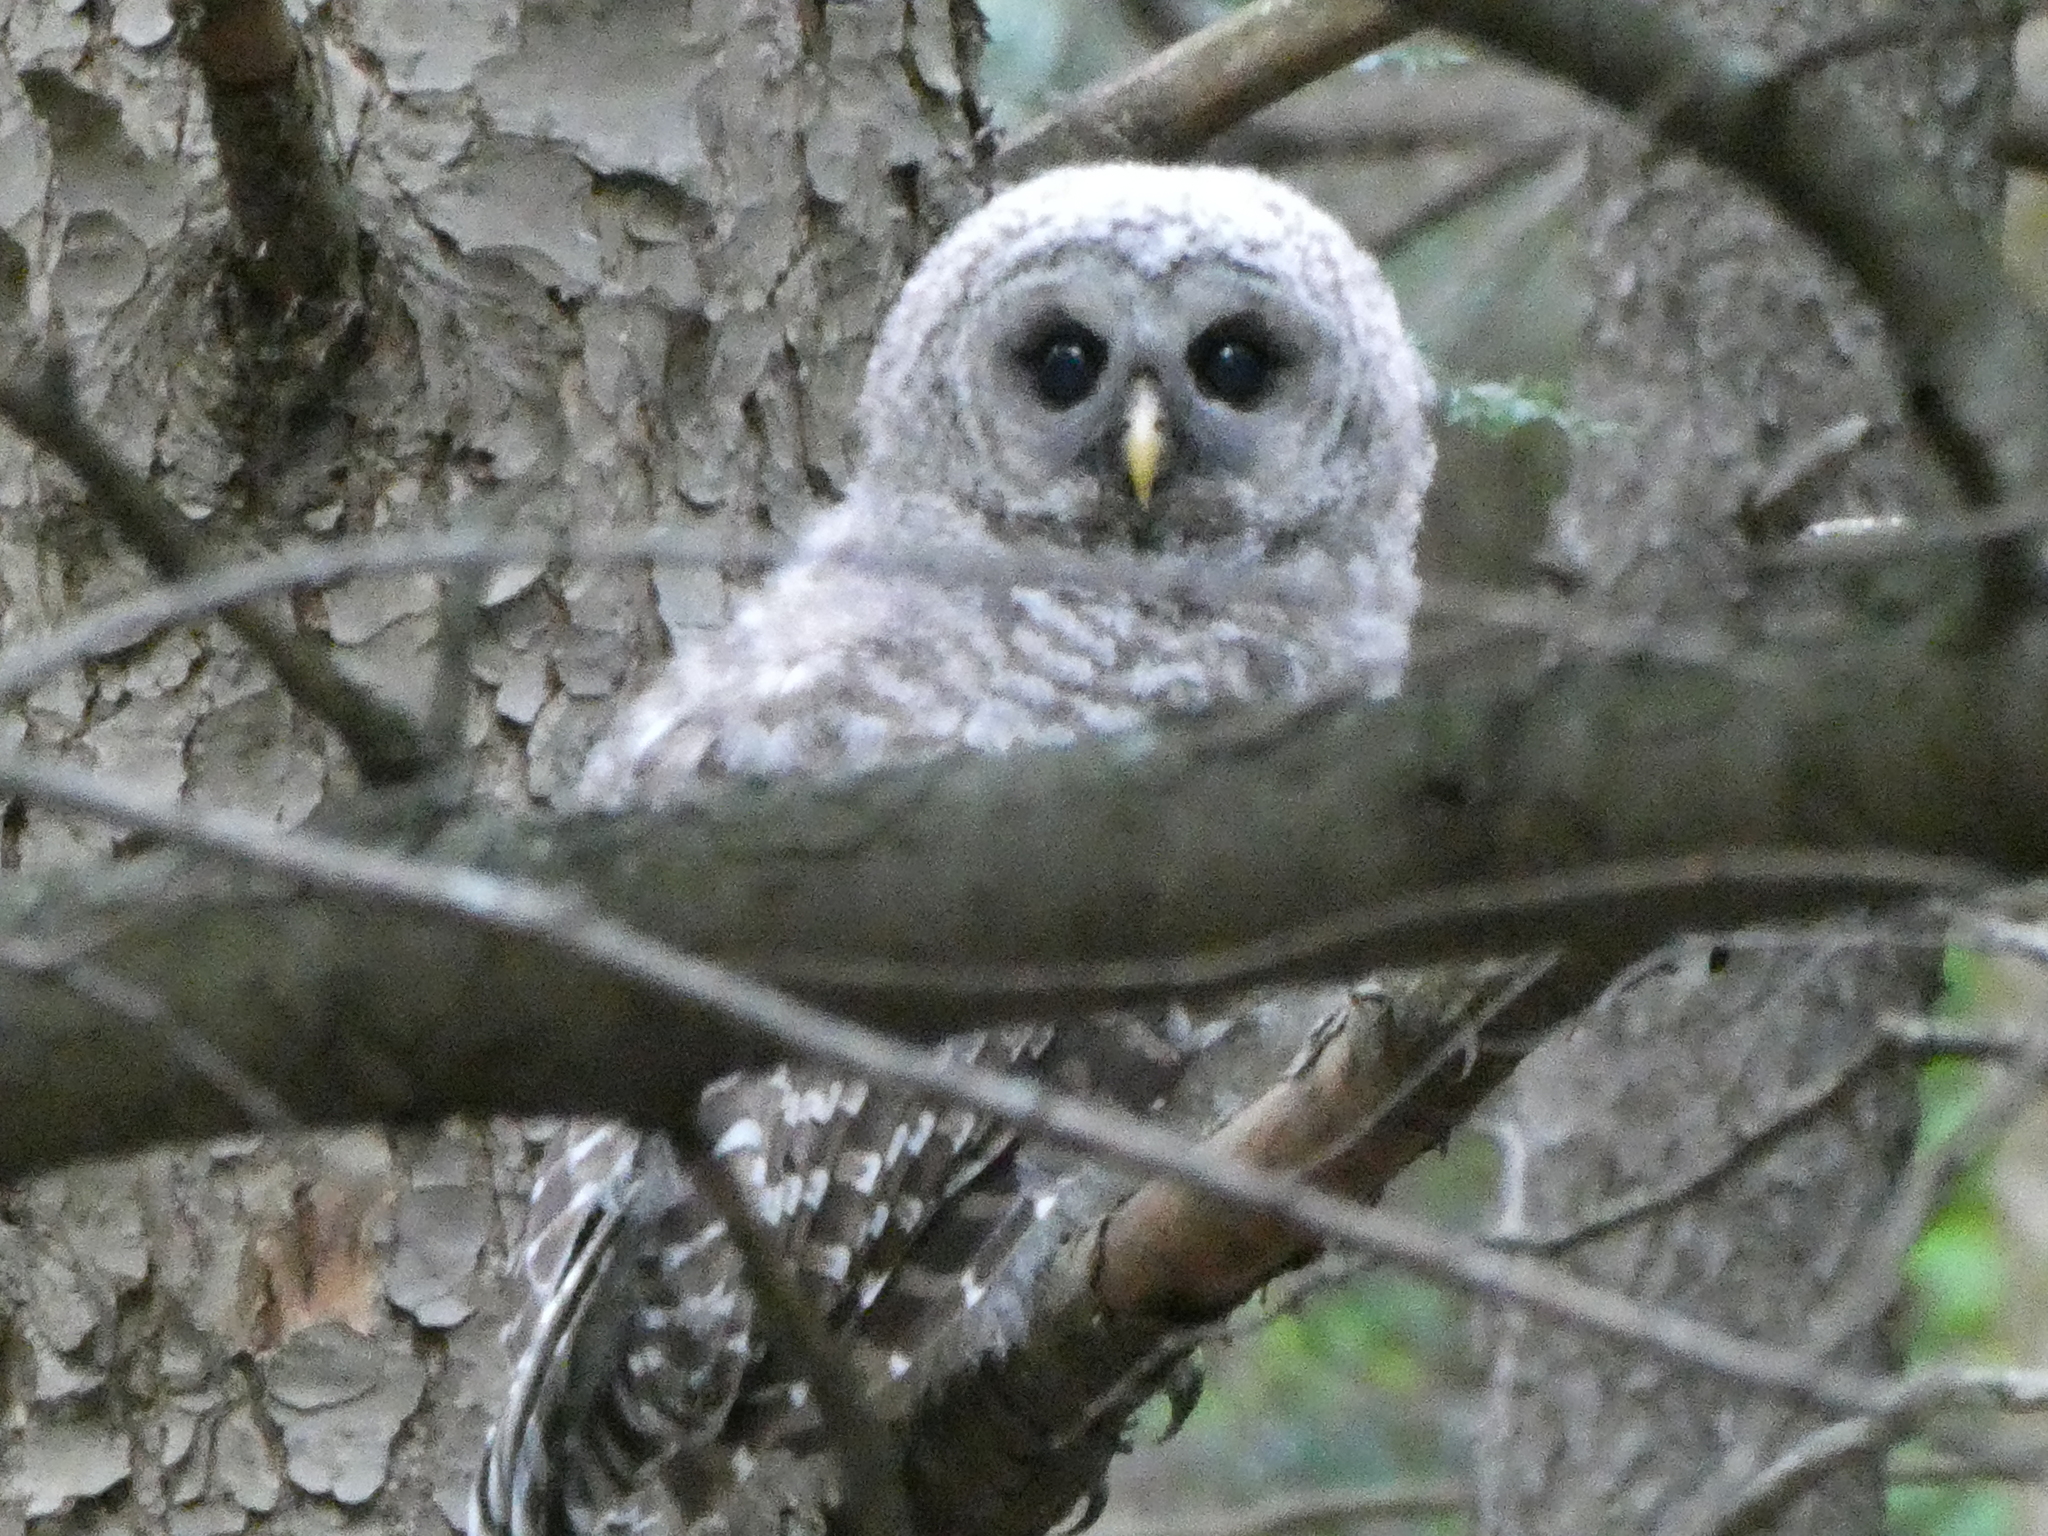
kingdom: Animalia
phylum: Chordata
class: Aves
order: Strigiformes
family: Strigidae
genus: Strix
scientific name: Strix varia
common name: Barred owl
